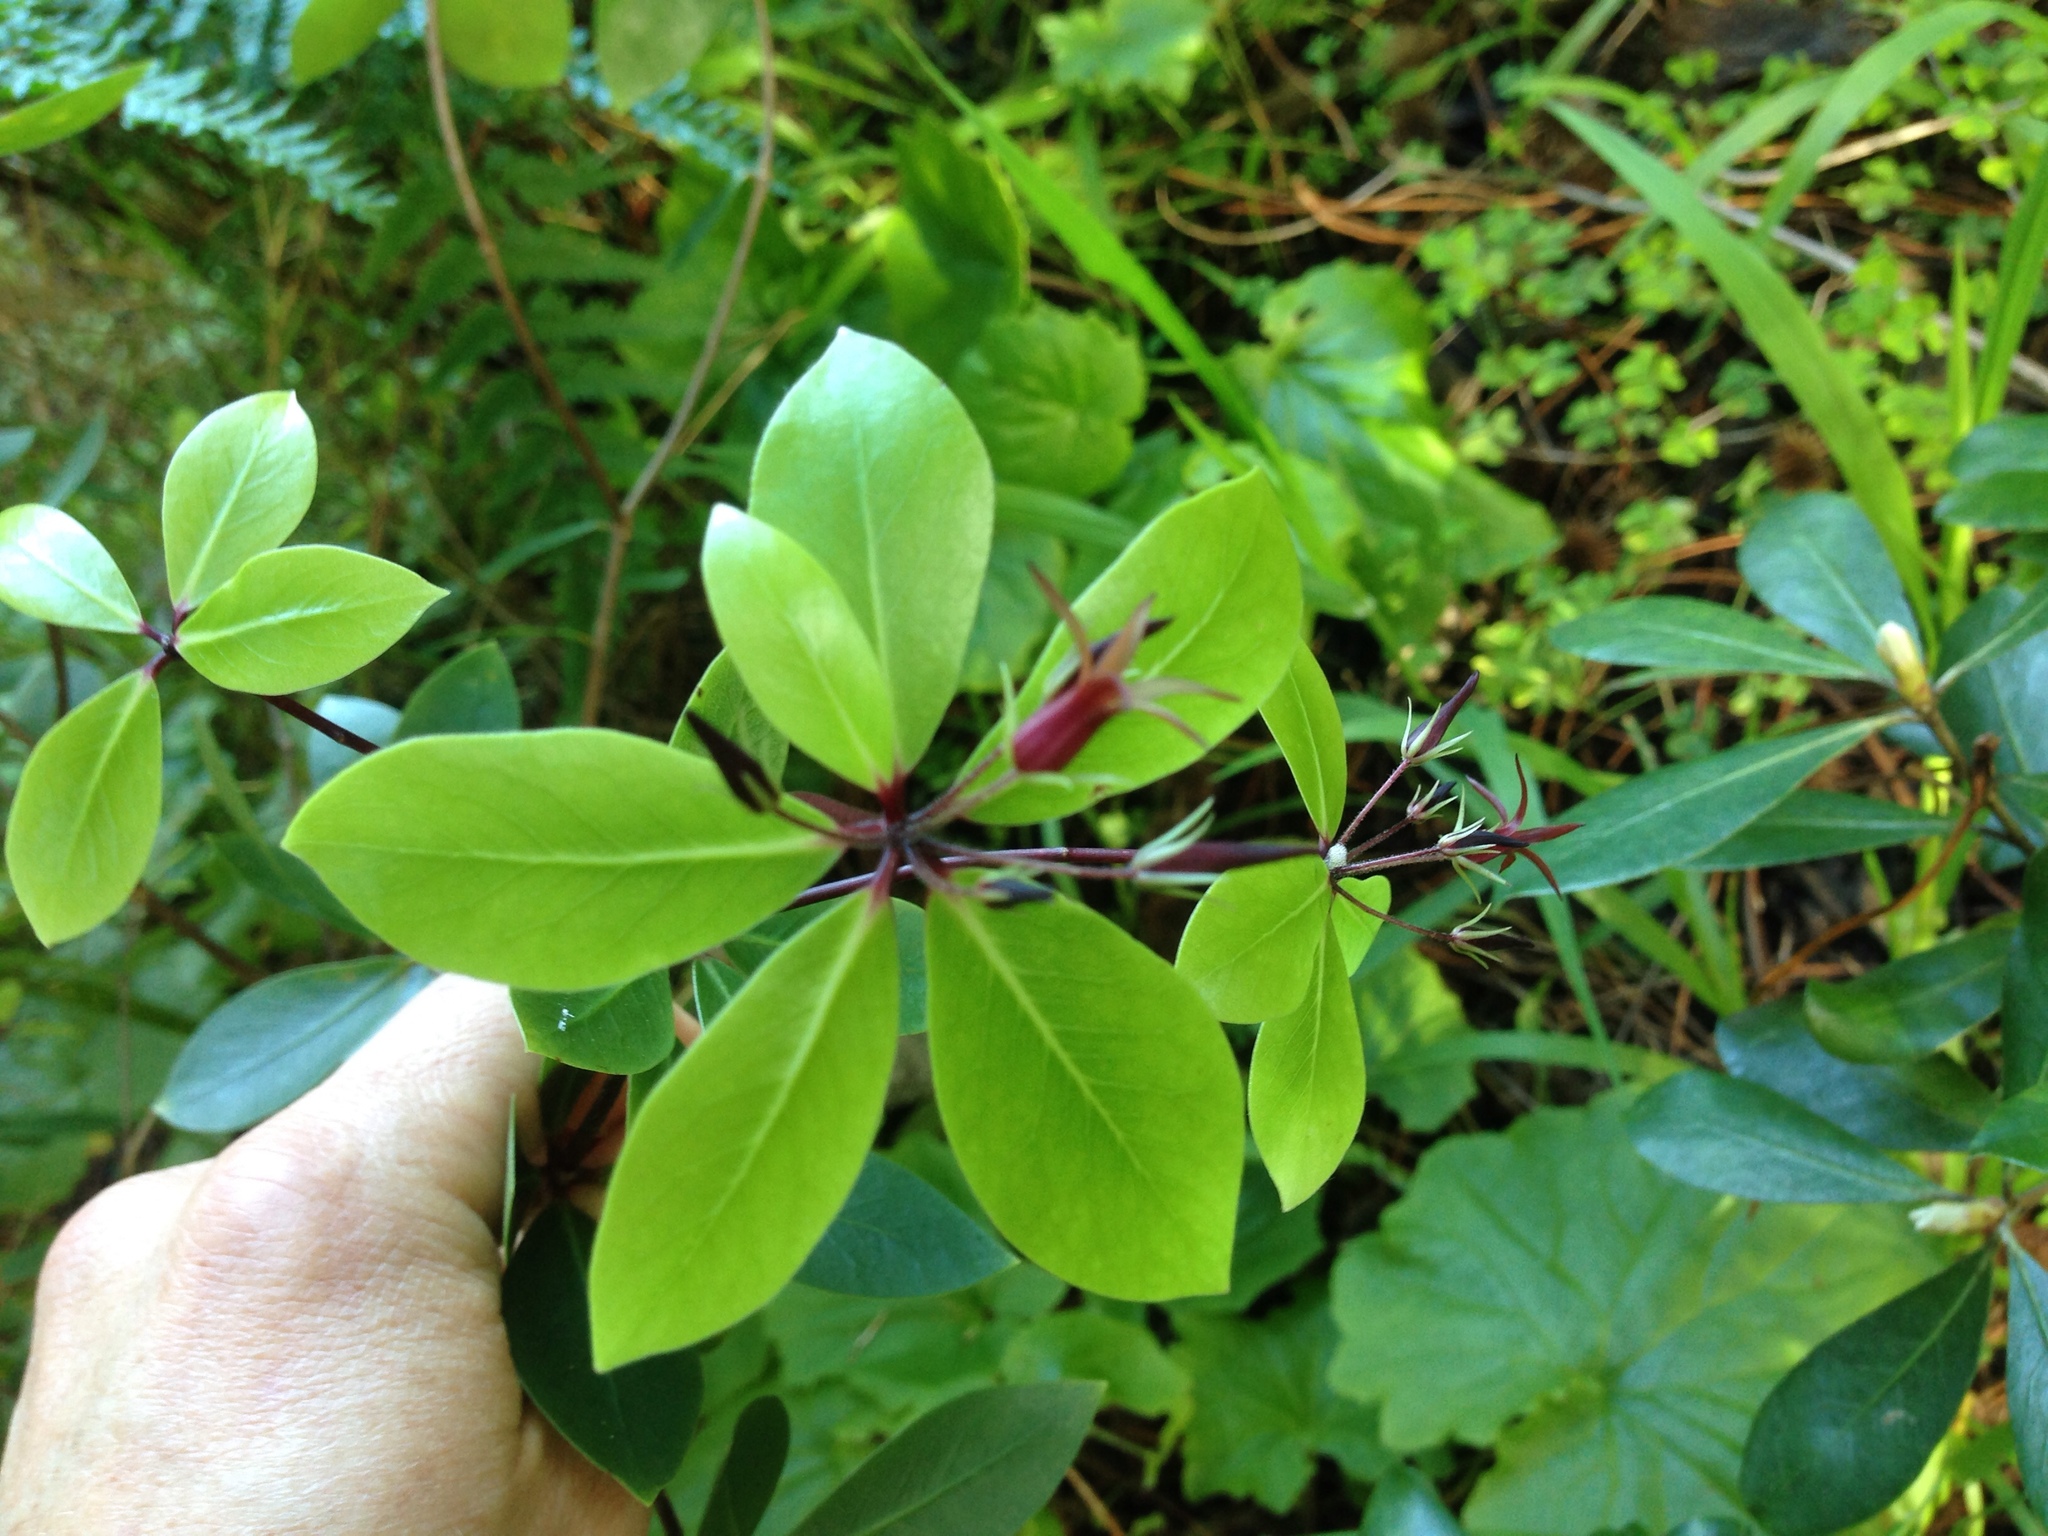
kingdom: Plantae
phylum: Tracheophyta
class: Magnoliopsida
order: Apiales
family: Pittosporaceae
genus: Pittosporum
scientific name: Pittosporum cornifolium
